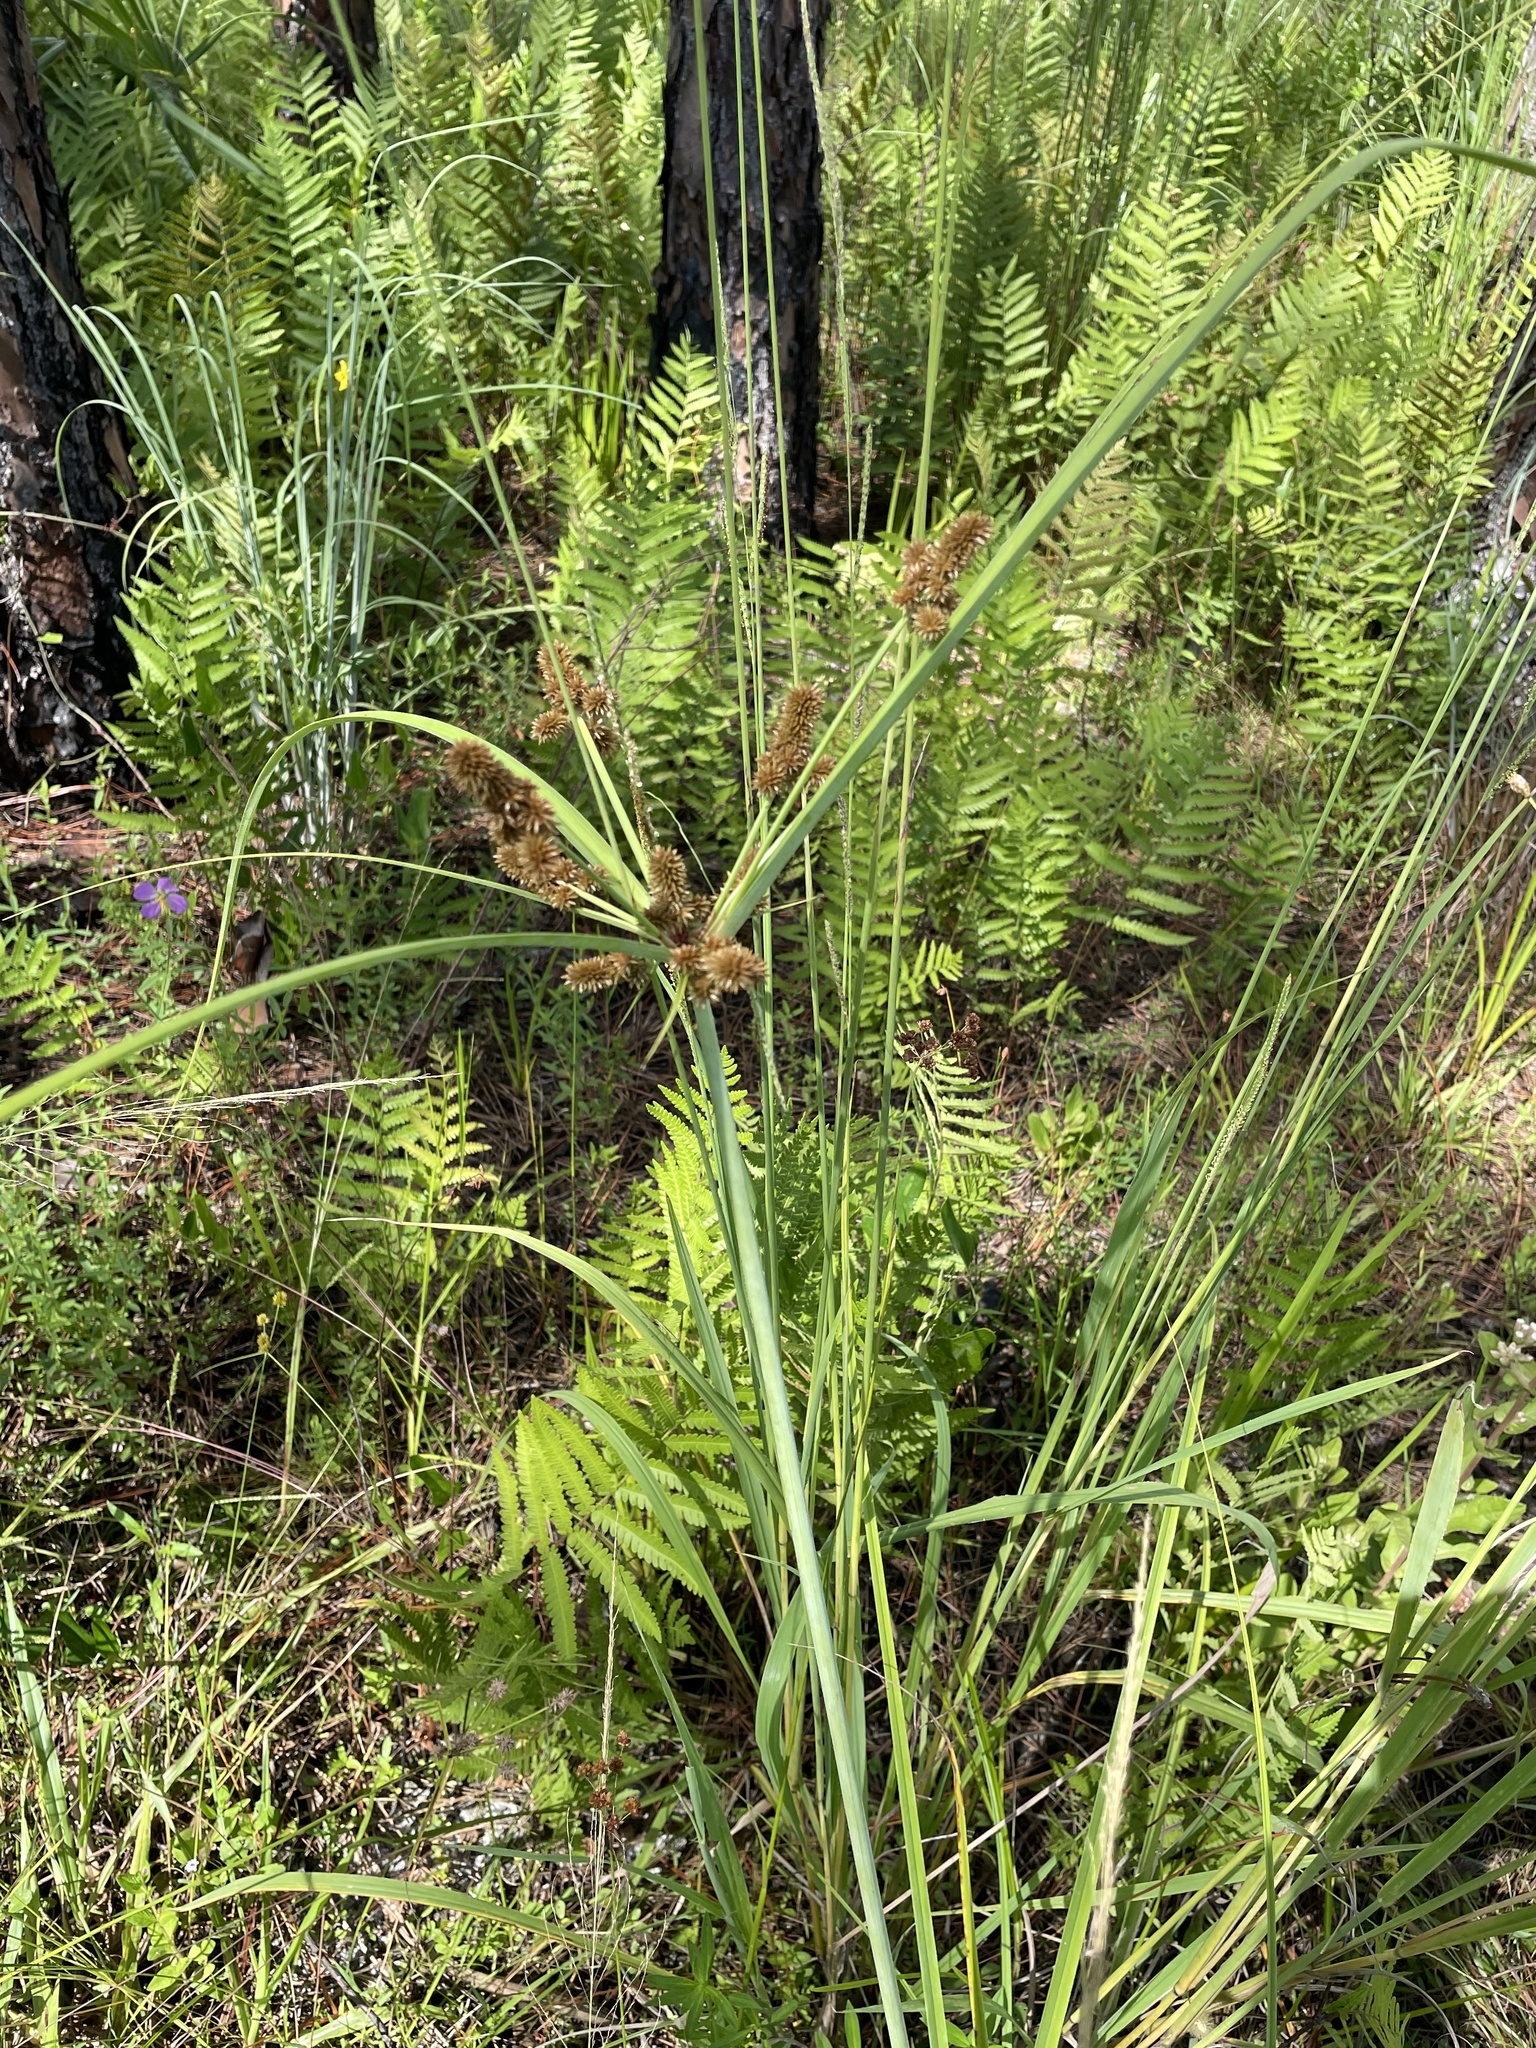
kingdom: Plantae
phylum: Tracheophyta
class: Liliopsida
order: Poales
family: Cyperaceae
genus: Cyperus
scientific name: Cyperus ligularis
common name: Swamp flat sedge
